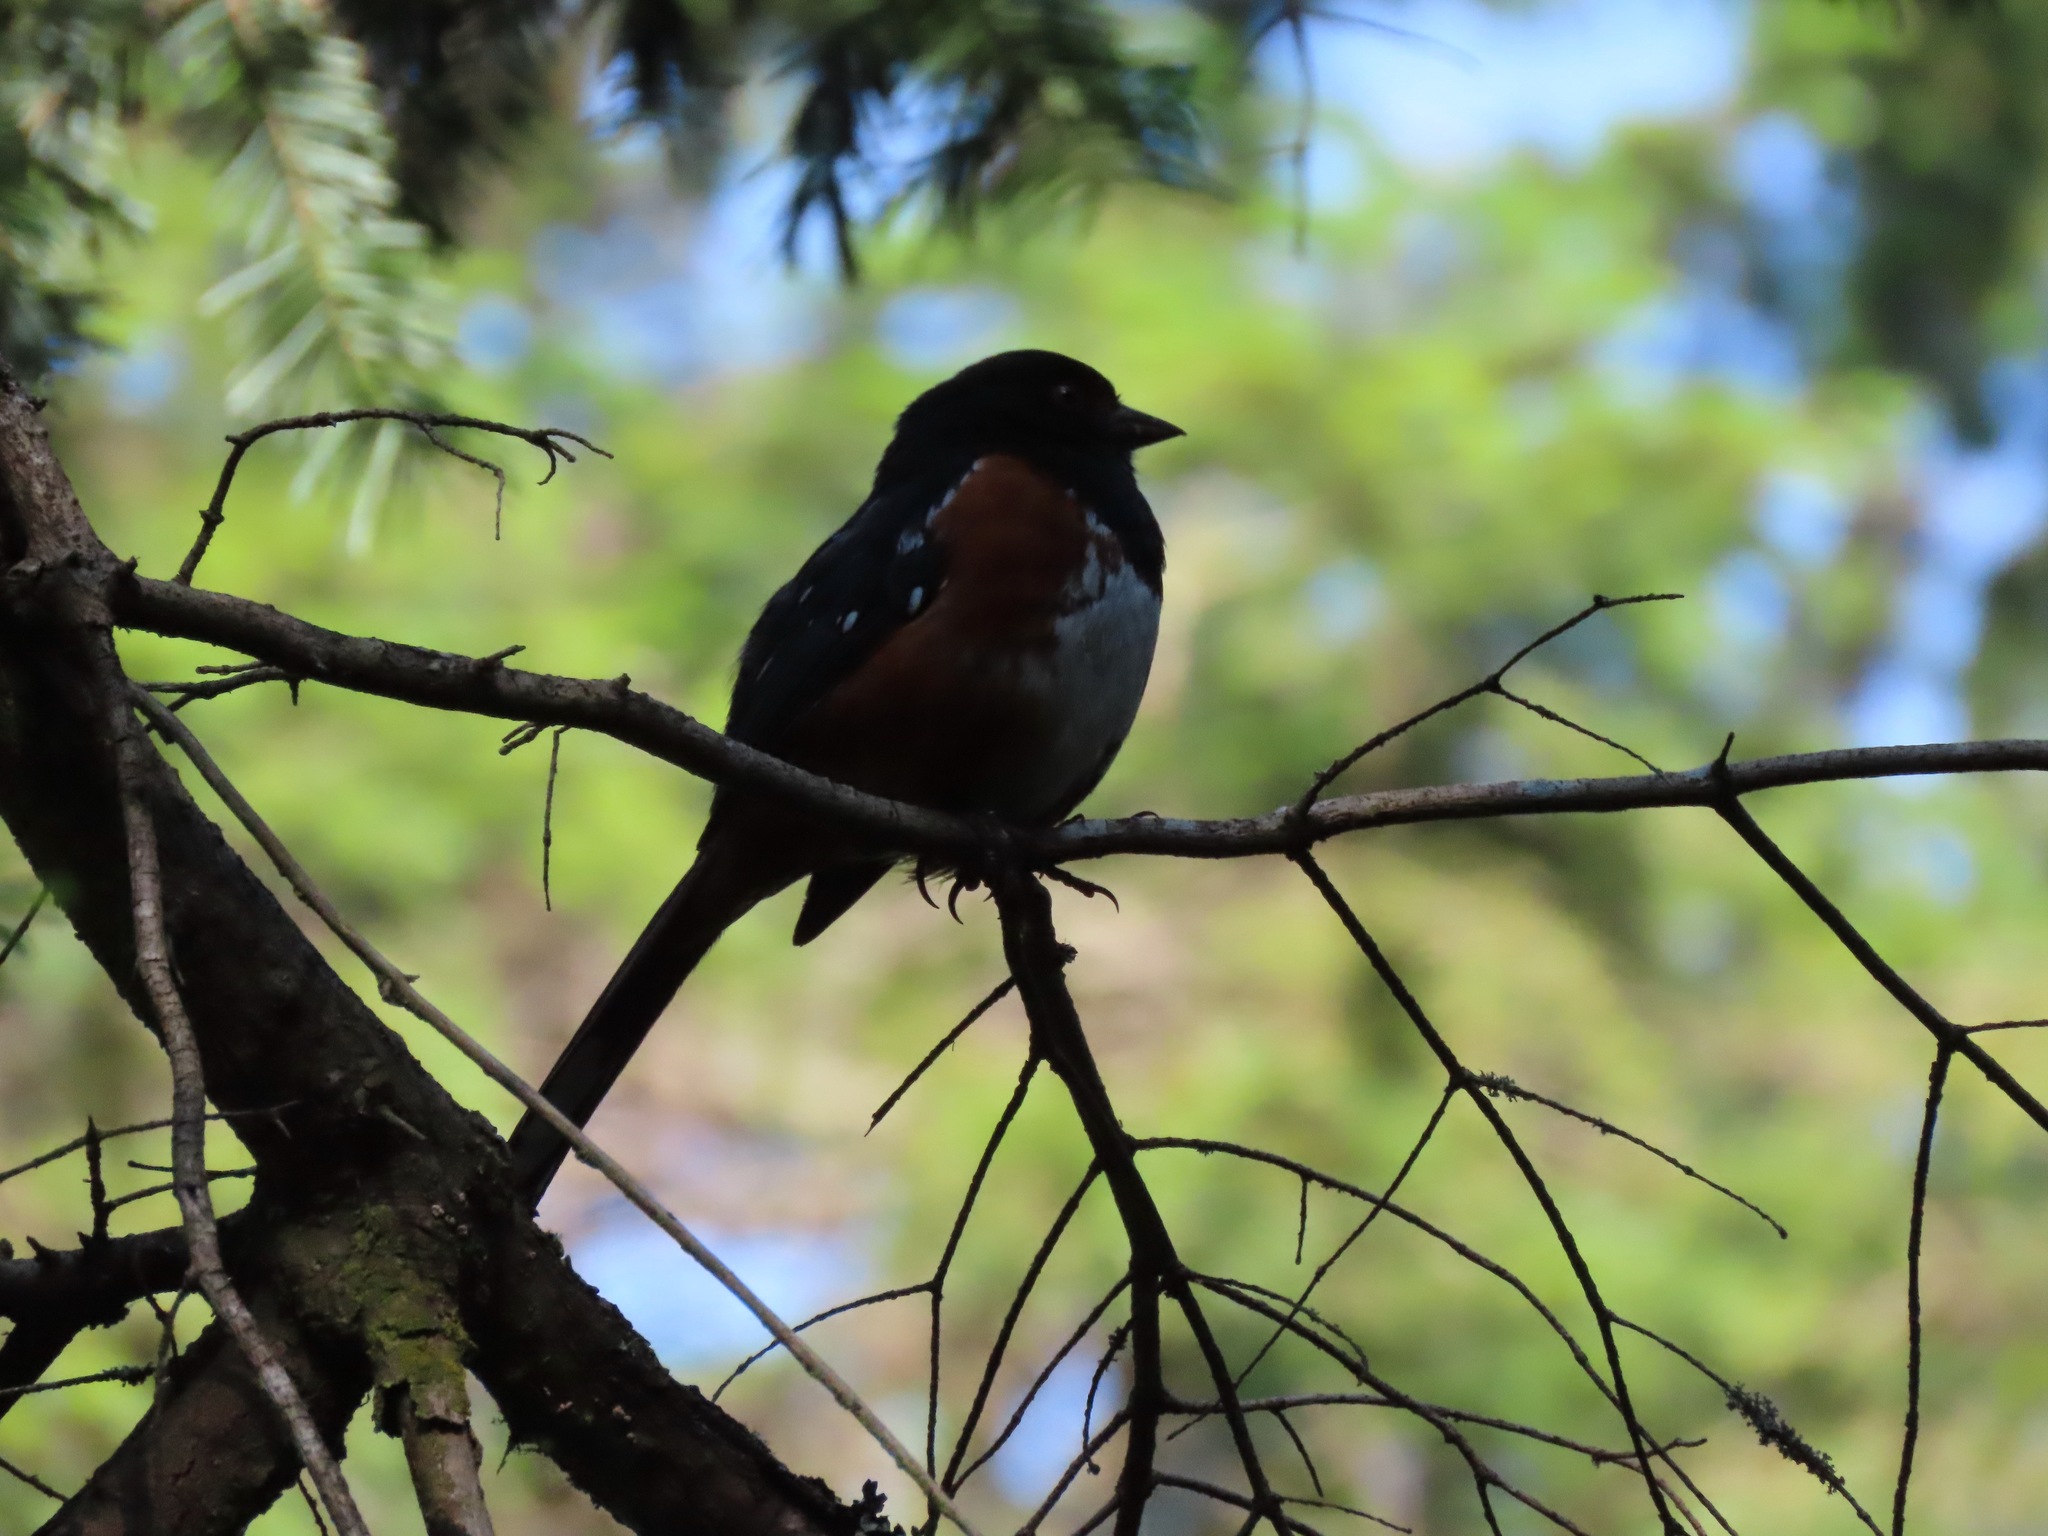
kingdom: Animalia
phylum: Chordata
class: Aves
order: Passeriformes
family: Passerellidae
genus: Pipilo
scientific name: Pipilo maculatus
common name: Spotted towhee
